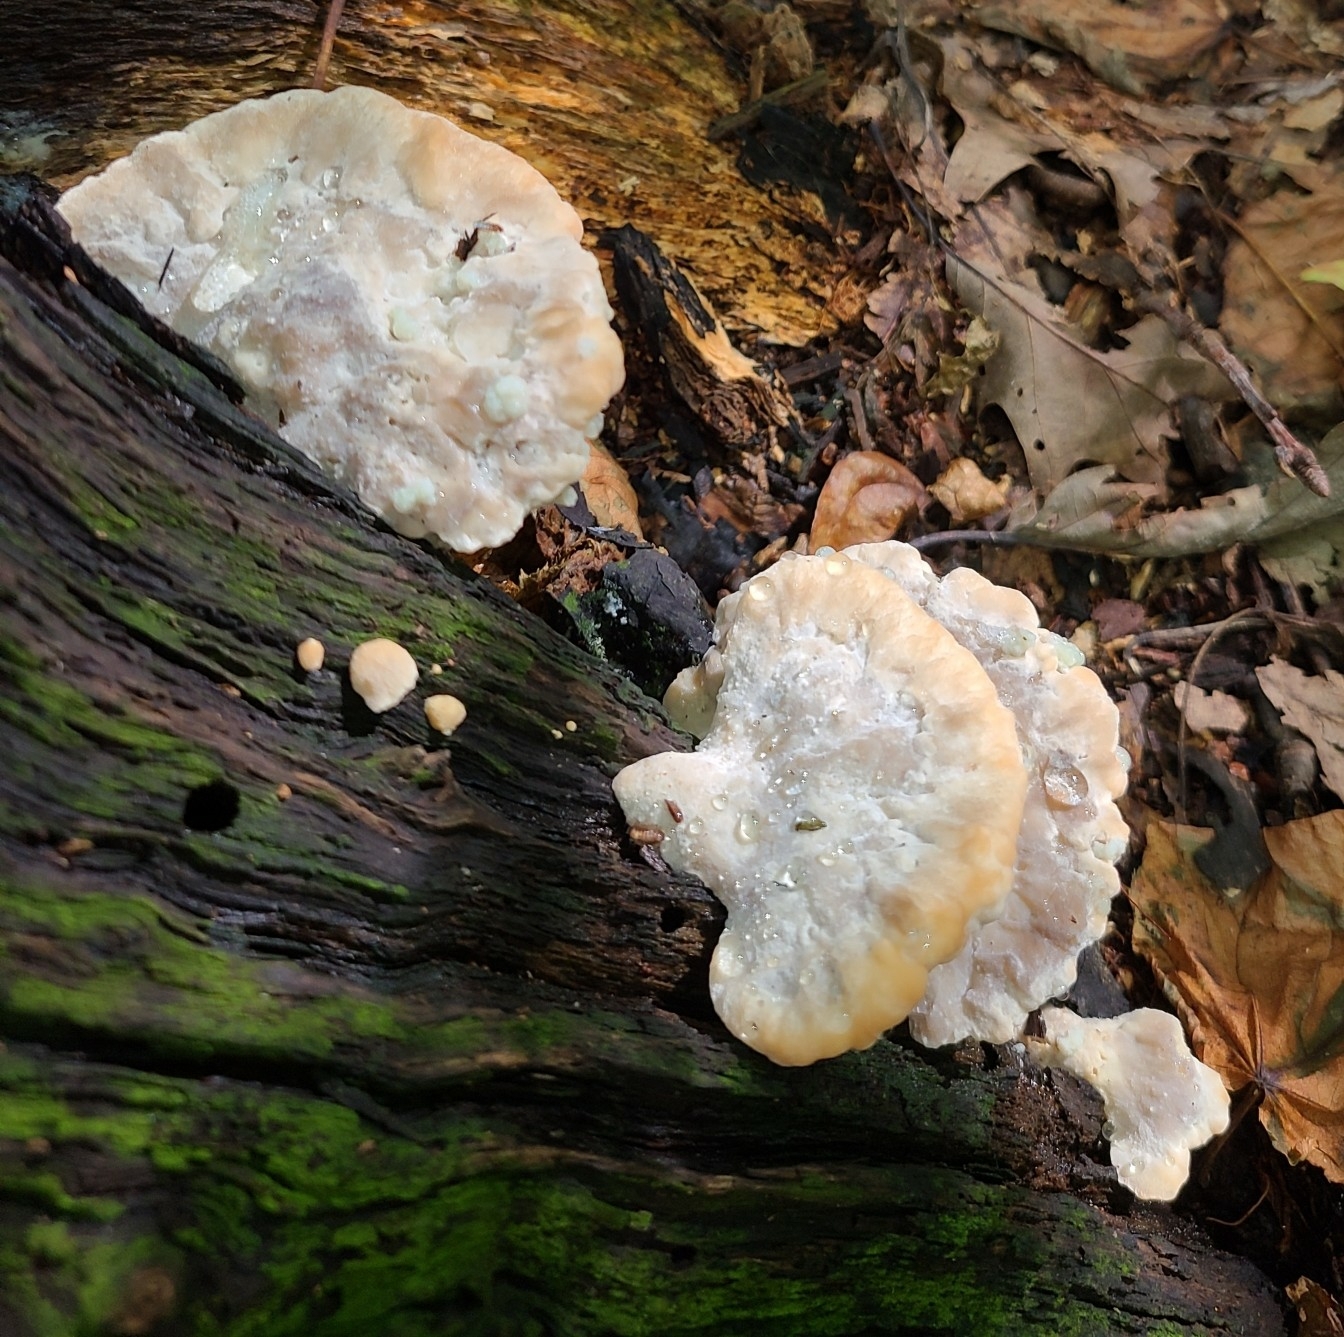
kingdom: Fungi
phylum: Basidiomycota
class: Agaricomycetes
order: Polyporales
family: Fomitopsidaceae
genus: Niveoporofomes
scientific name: Niveoporofomes spraguei
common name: Green cheese polypore
